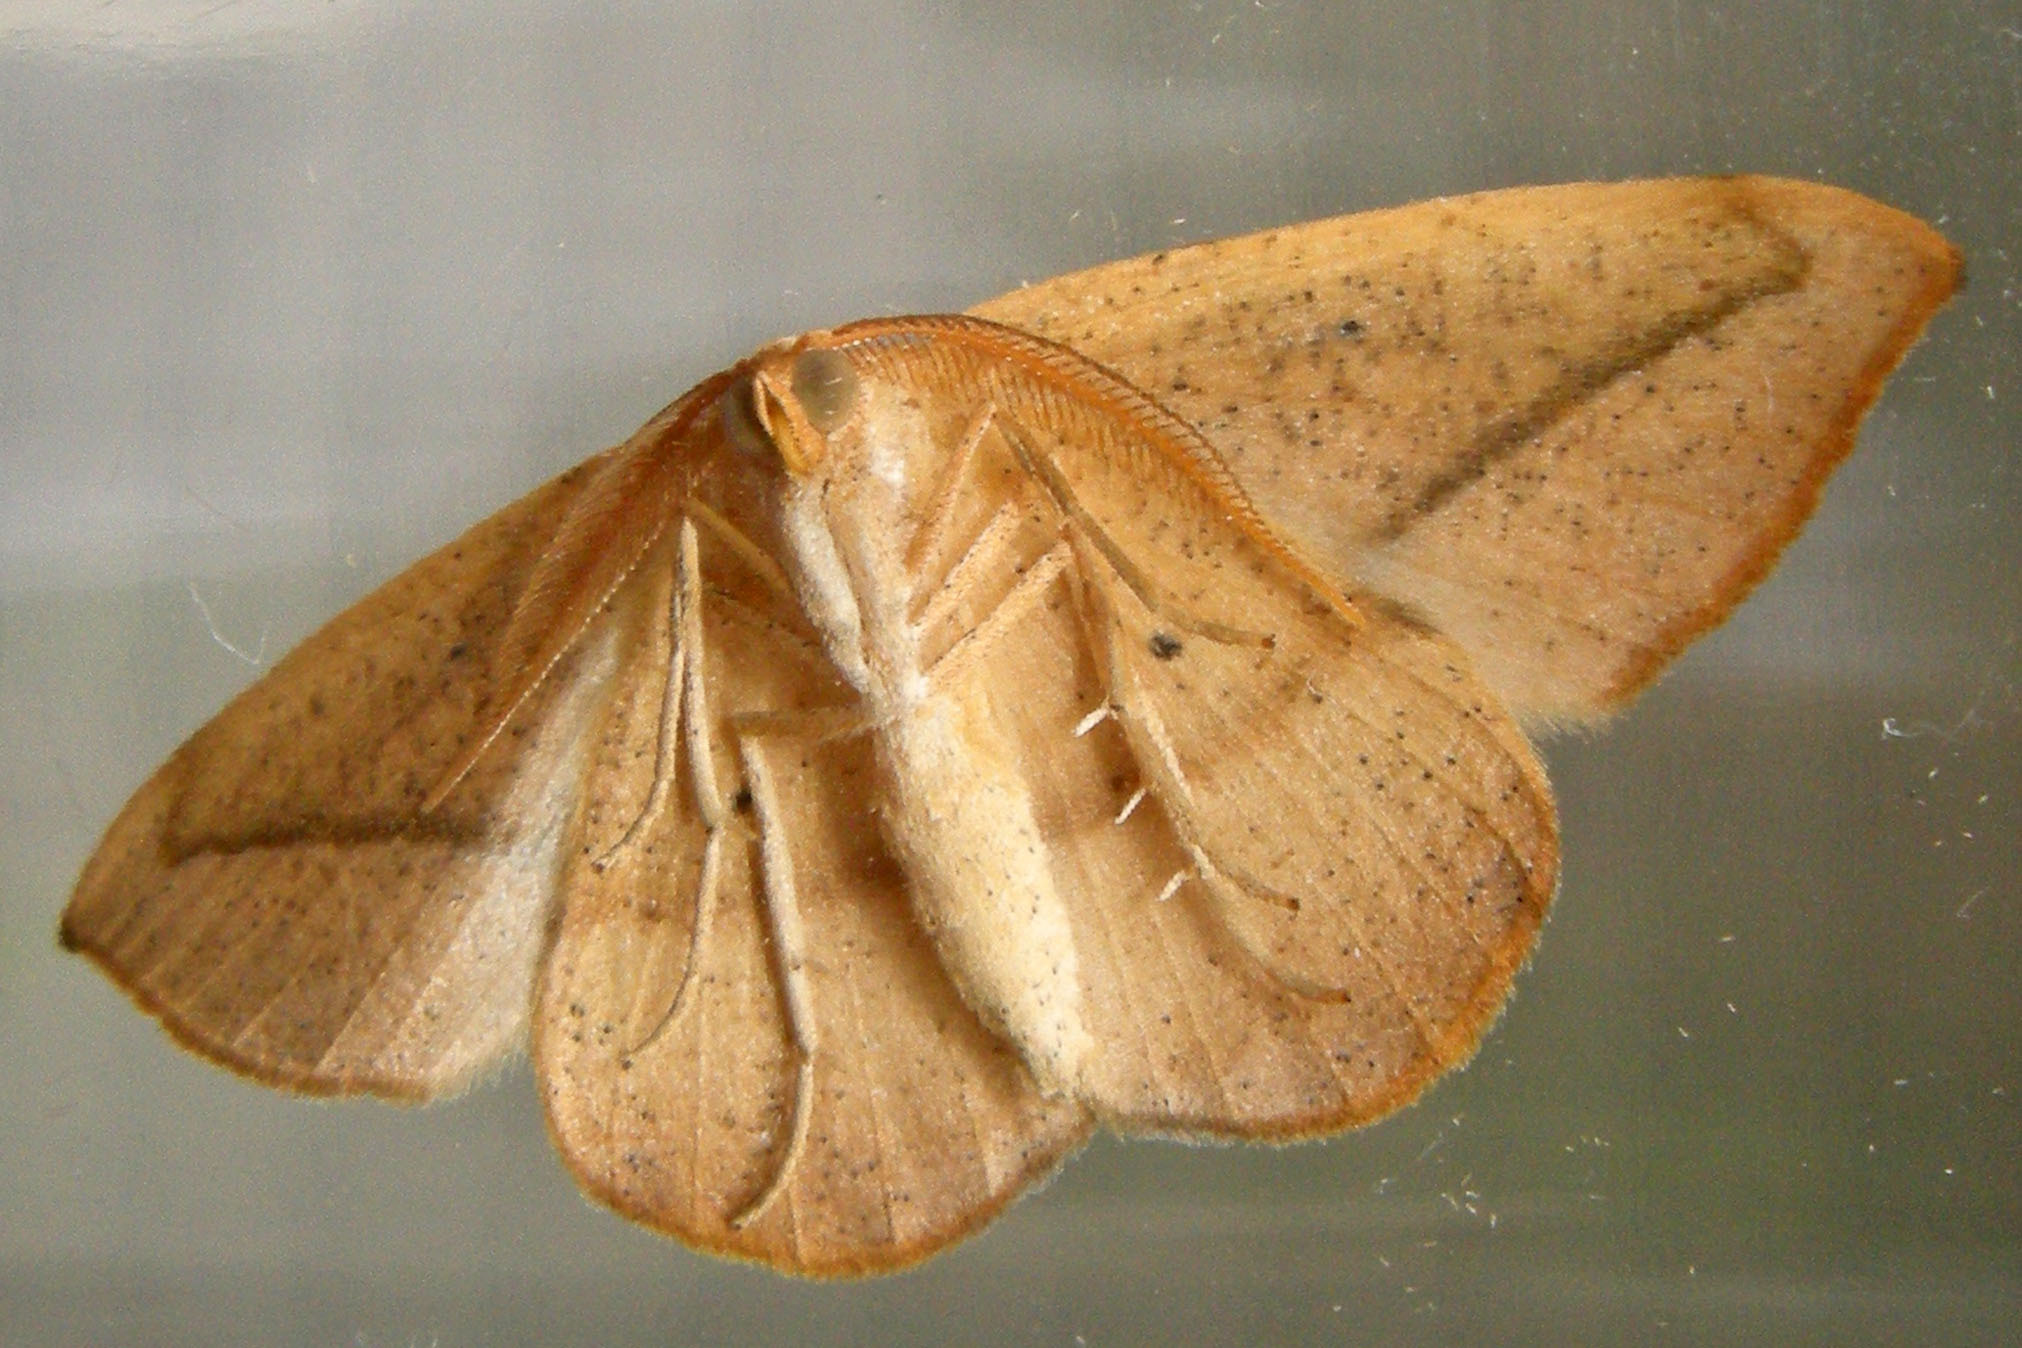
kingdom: Animalia
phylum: Arthropoda
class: Insecta
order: Lepidoptera
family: Geometridae
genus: Patalene
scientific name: Patalene olyzonaria
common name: Juniper geometer moth
